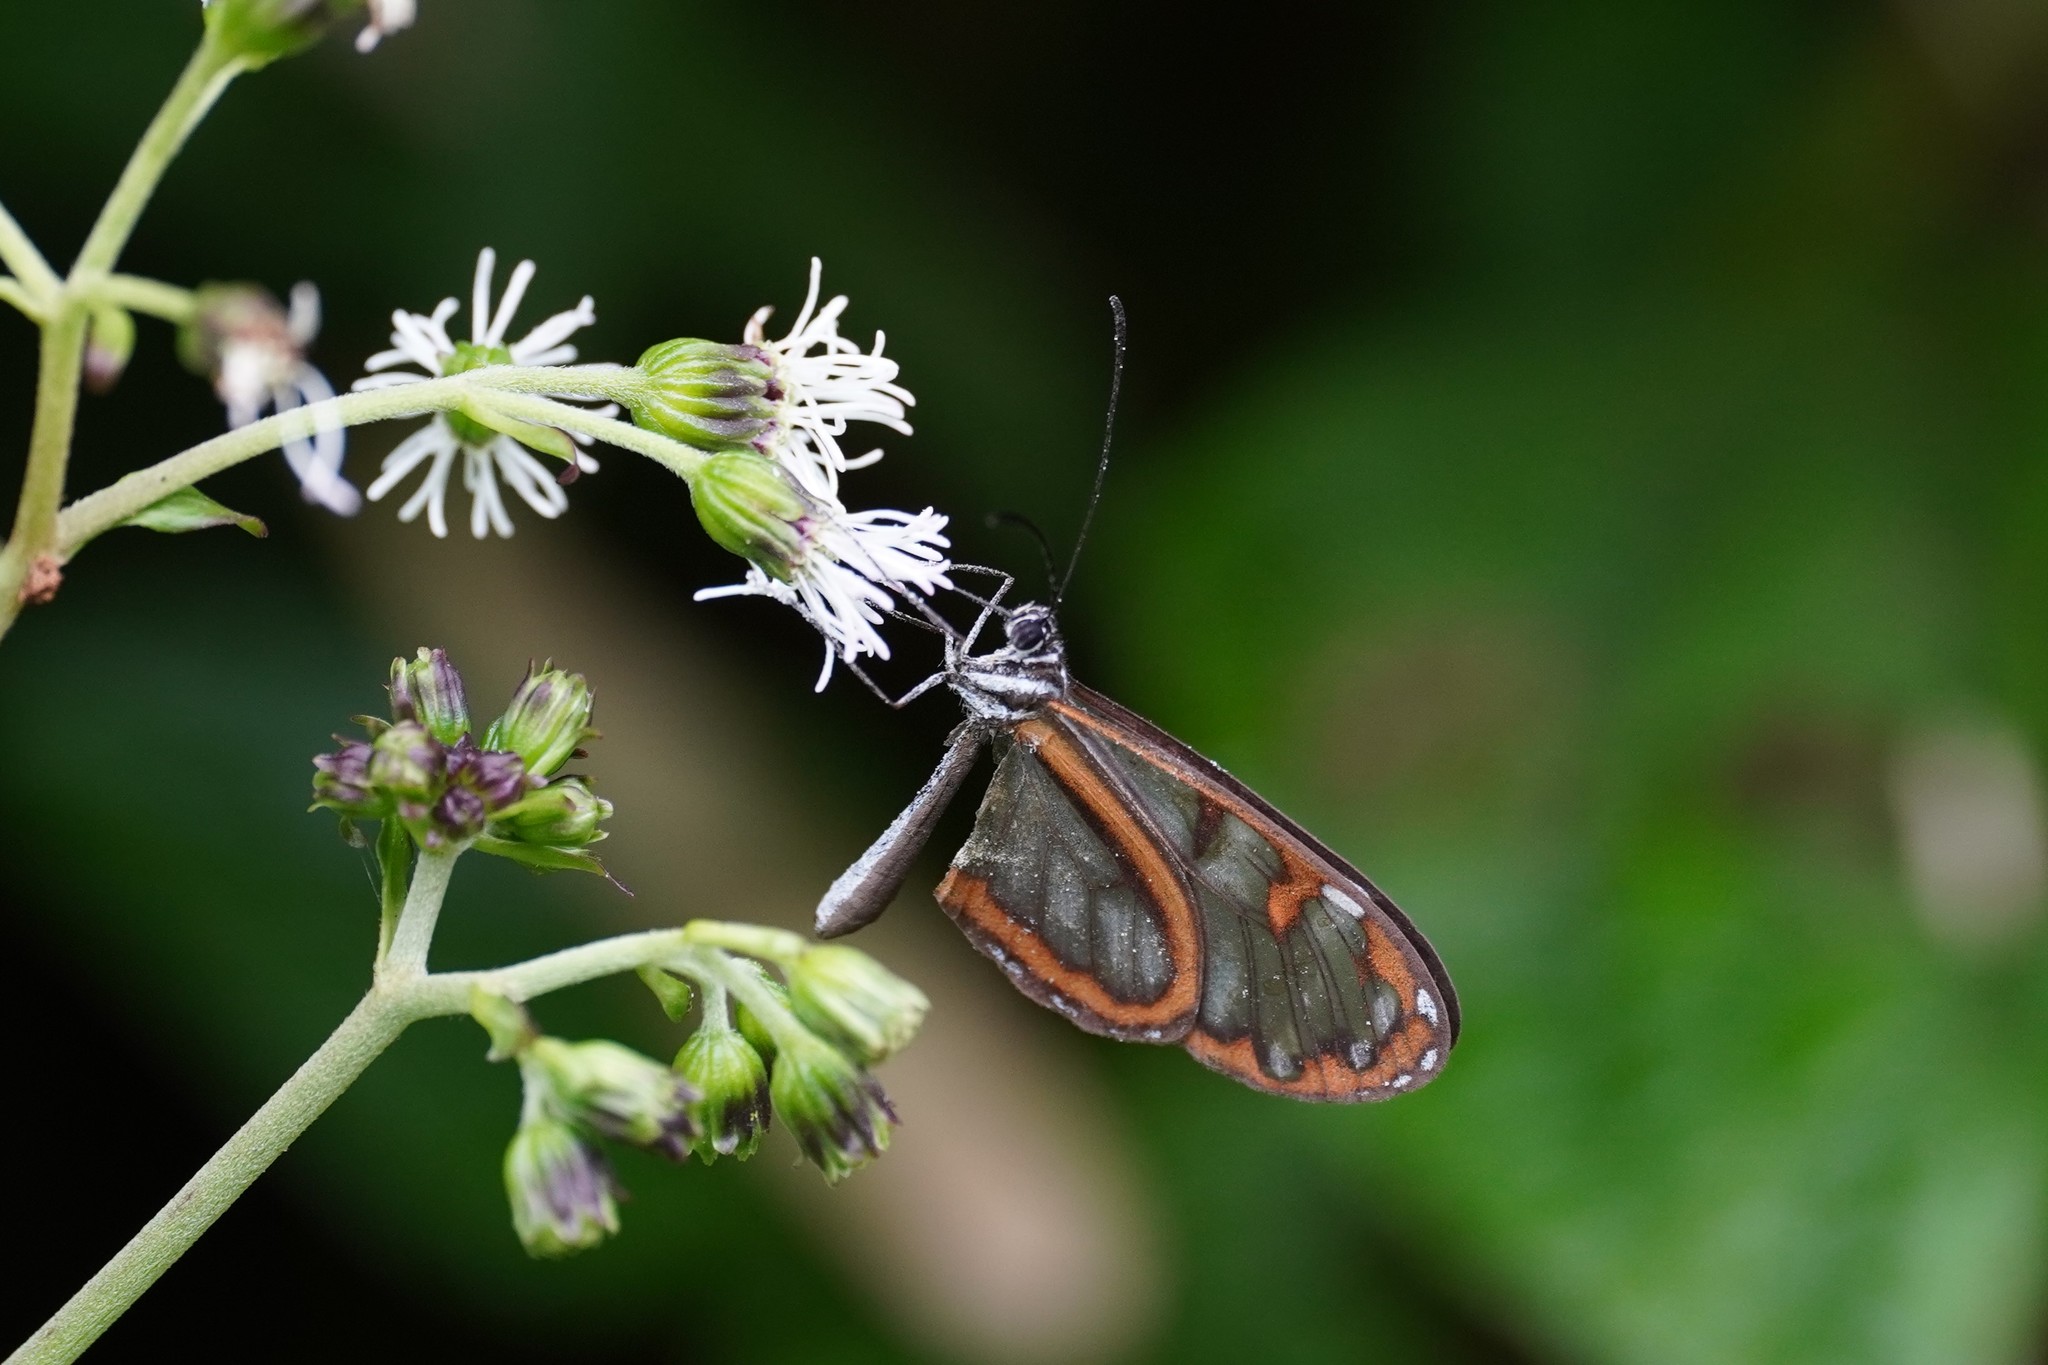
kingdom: Animalia
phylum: Arthropoda
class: Insecta
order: Lepidoptera
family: Nymphalidae
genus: Oleria
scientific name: Oleria tremona
